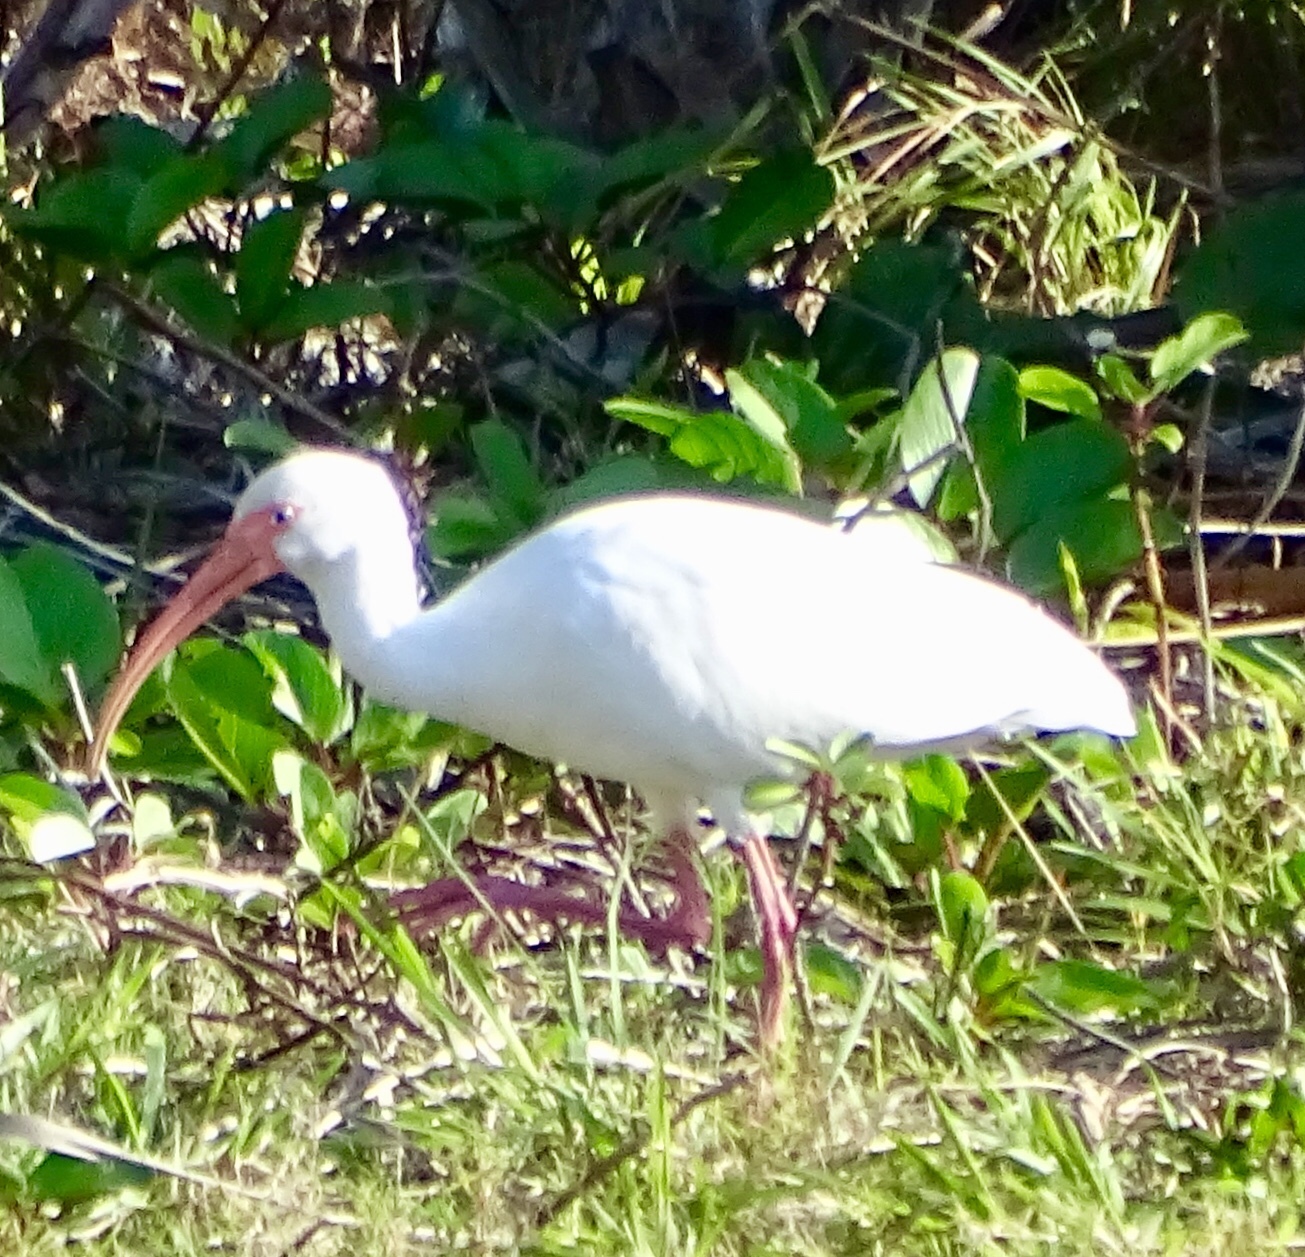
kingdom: Animalia
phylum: Chordata
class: Aves
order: Pelecaniformes
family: Threskiornithidae
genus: Eudocimus
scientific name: Eudocimus albus
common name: White ibis
